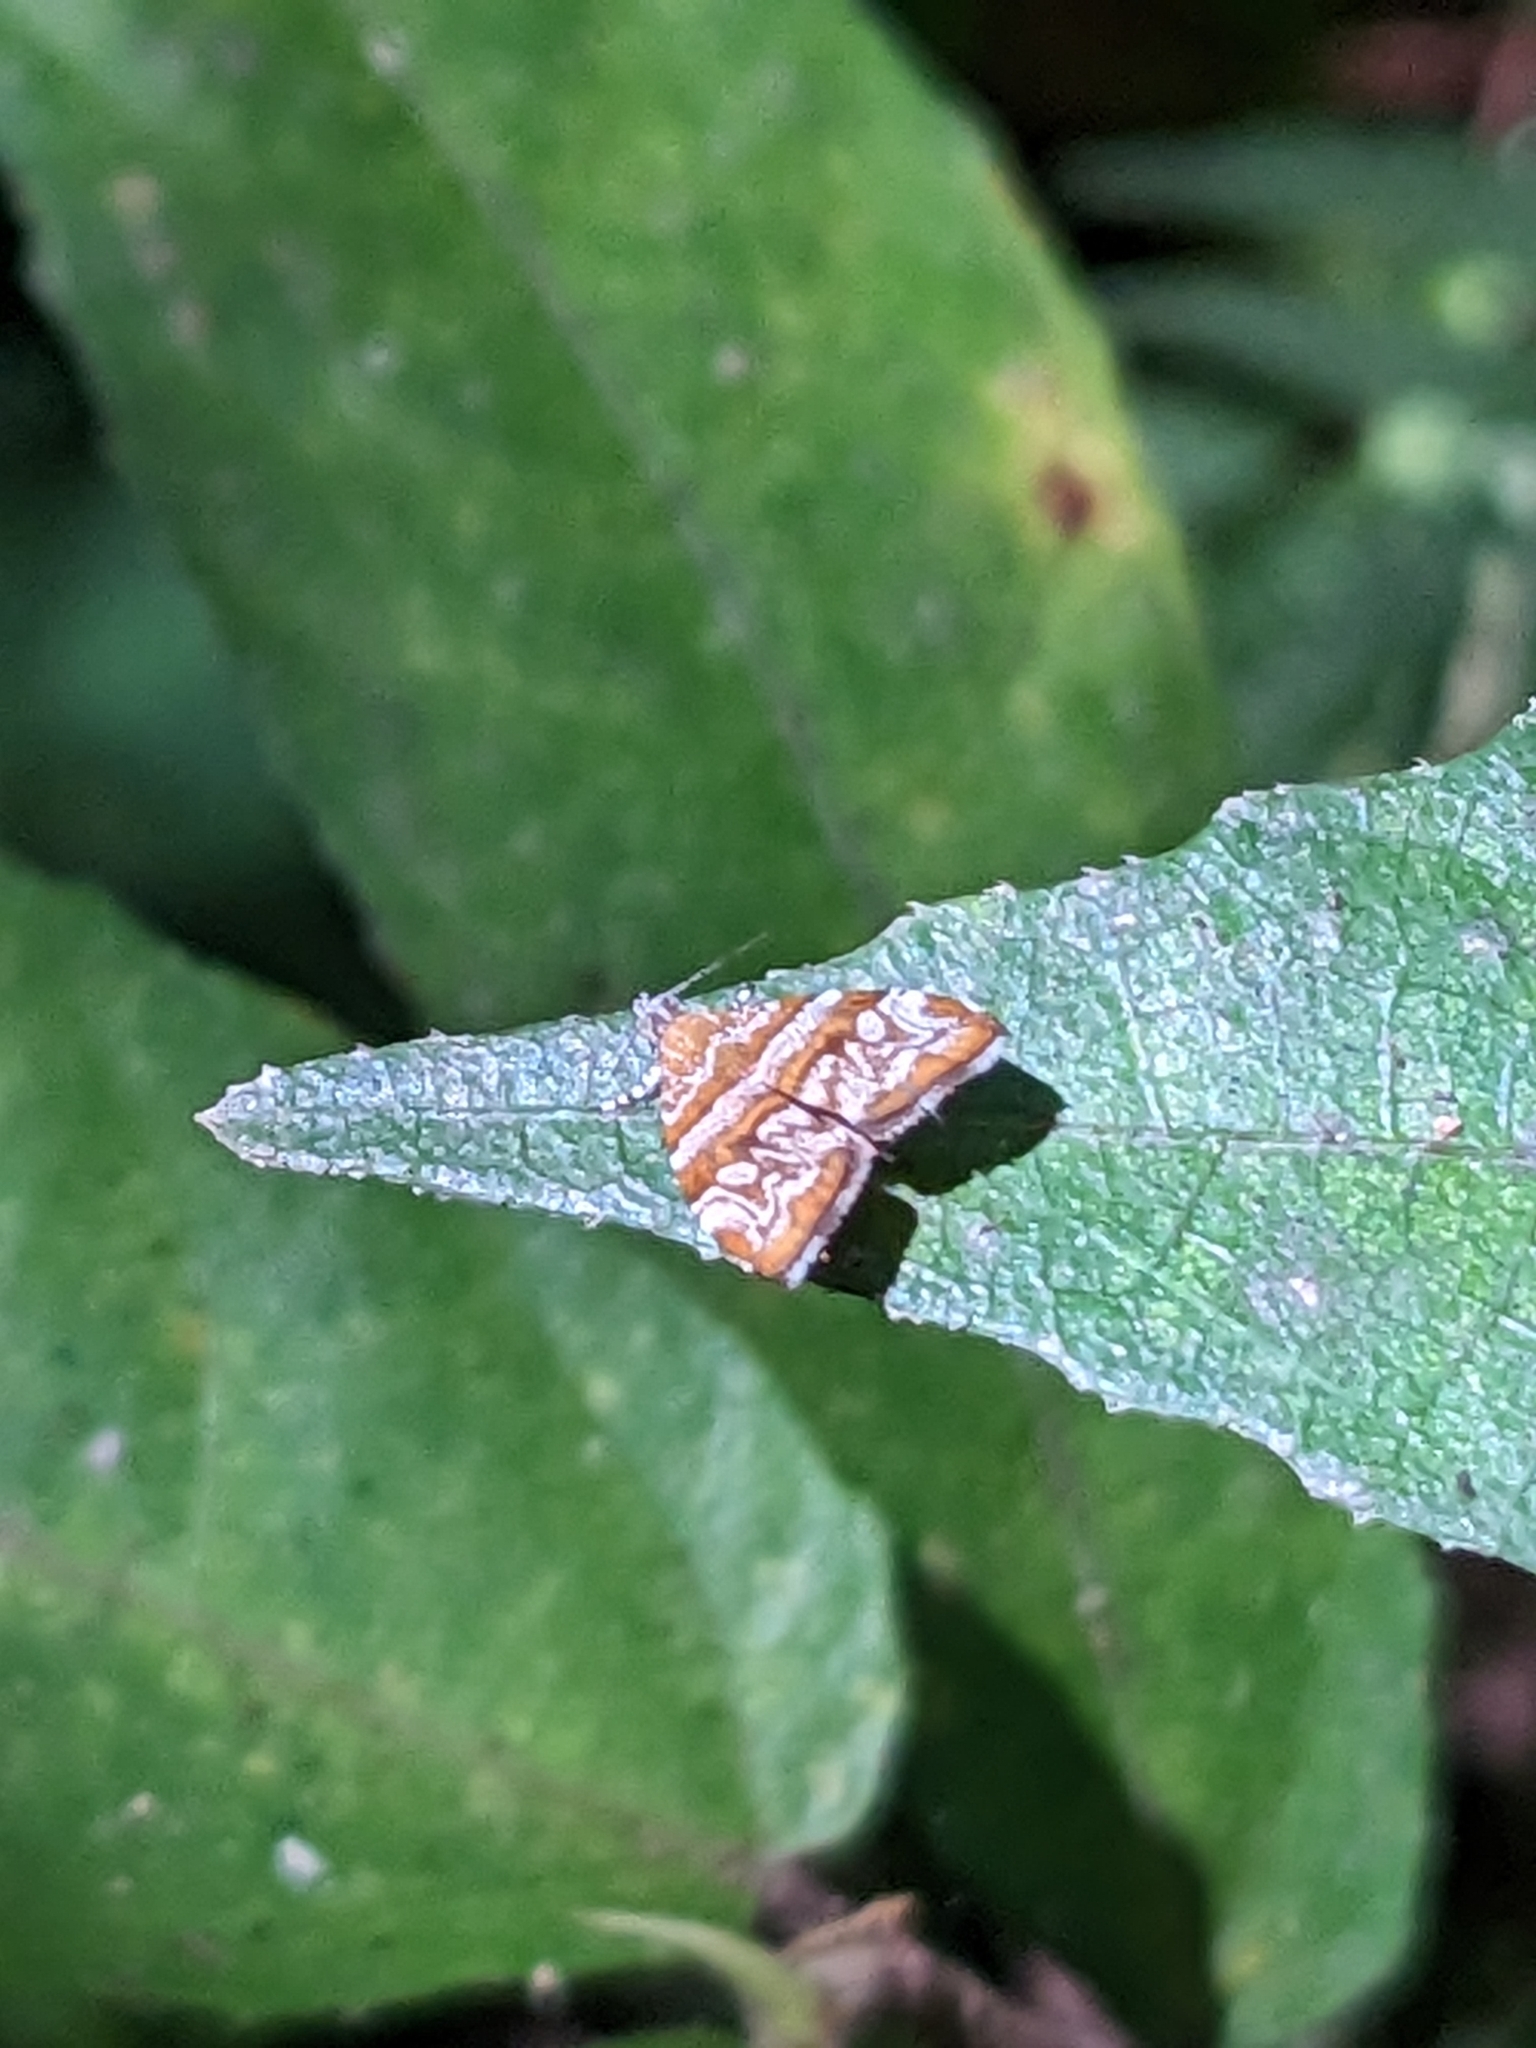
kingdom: Animalia
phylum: Arthropoda
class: Insecta
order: Lepidoptera
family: Choreutidae
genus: Choreutis
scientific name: Choreutis periploca
